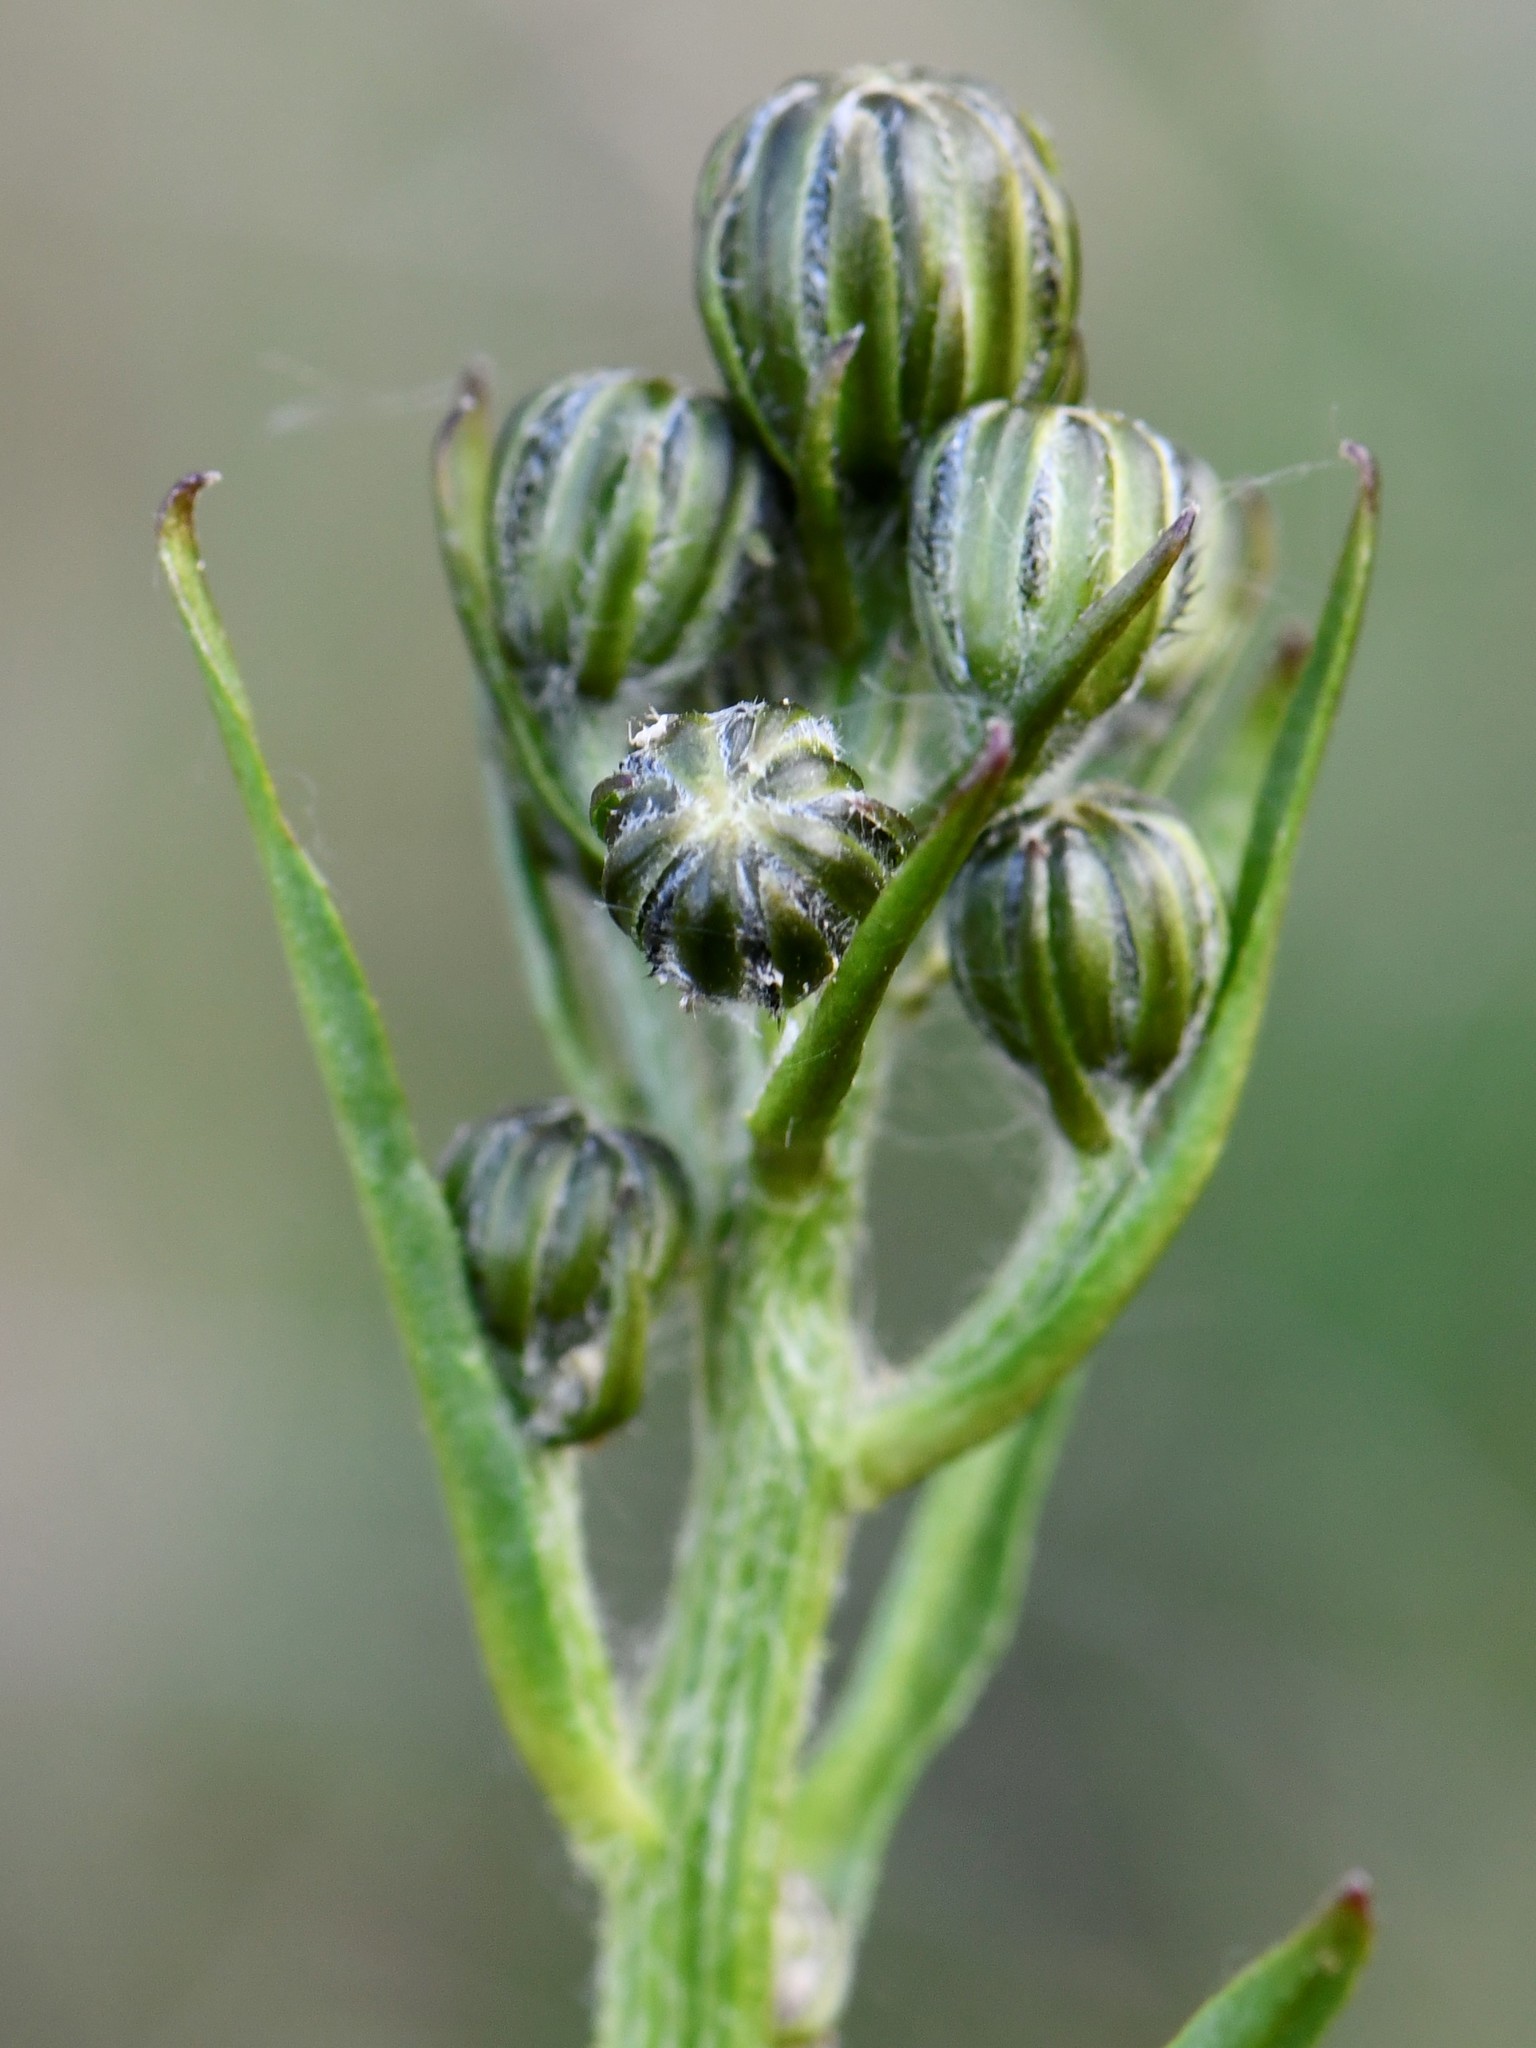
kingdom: Plantae
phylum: Tracheophyta
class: Magnoliopsida
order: Asterales
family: Asteraceae
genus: Crepis
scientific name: Crepis biennis
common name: Rough hawk's-beard
